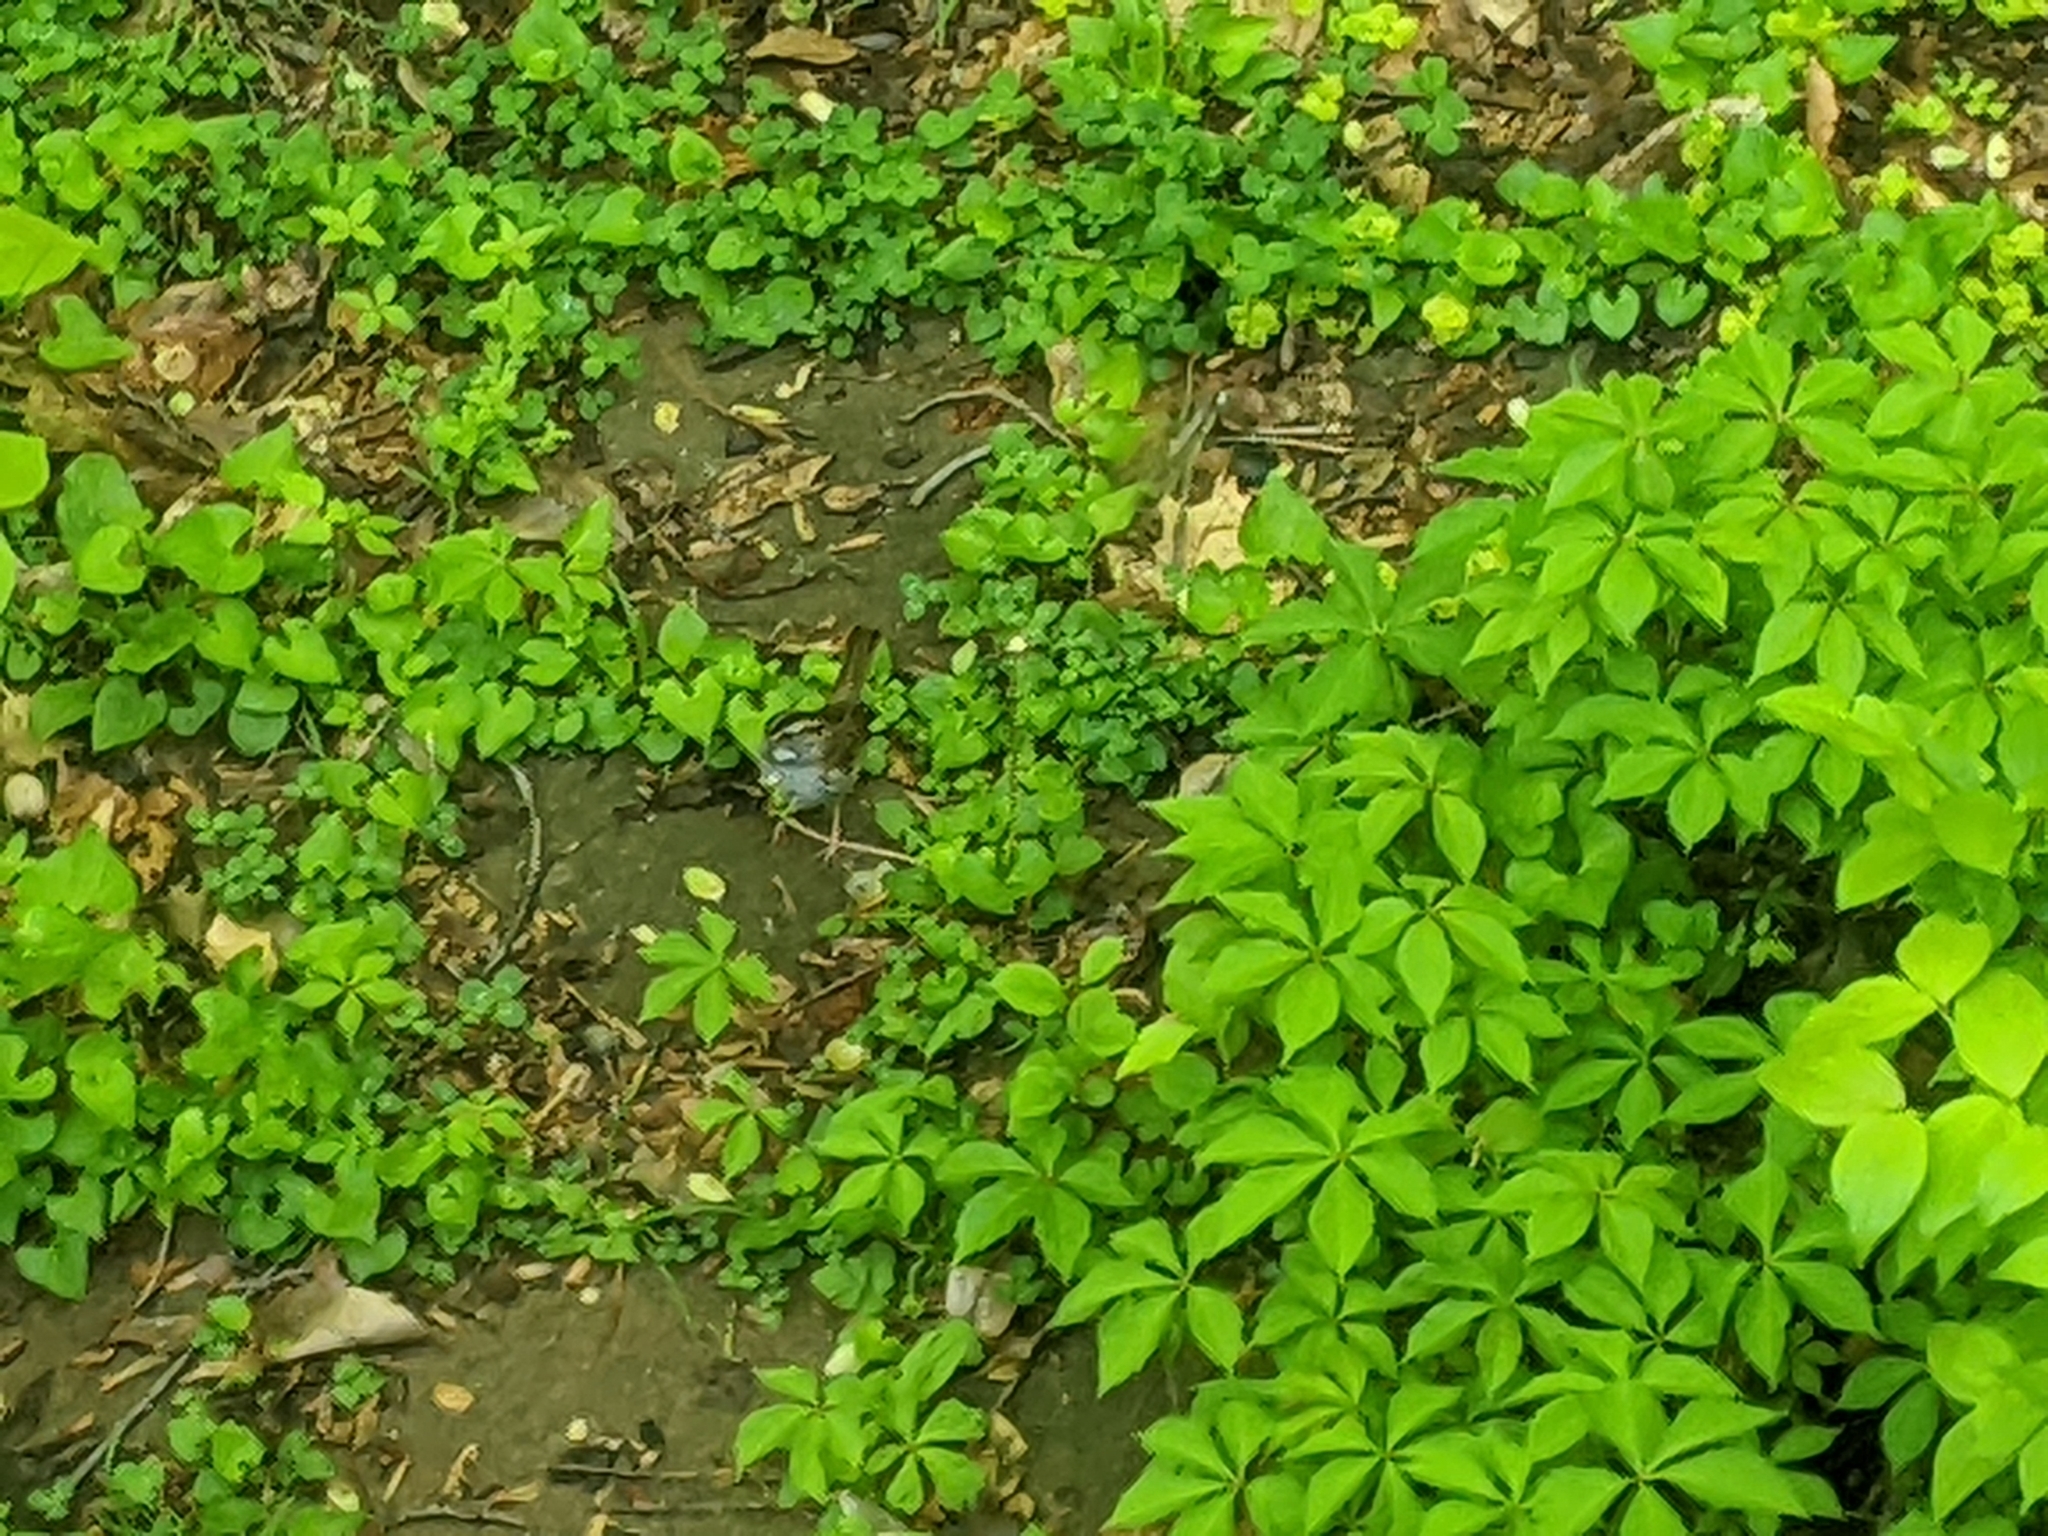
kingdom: Animalia
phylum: Chordata
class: Aves
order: Passeriformes
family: Passerellidae
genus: Zonotrichia
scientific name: Zonotrichia albicollis
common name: White-throated sparrow
